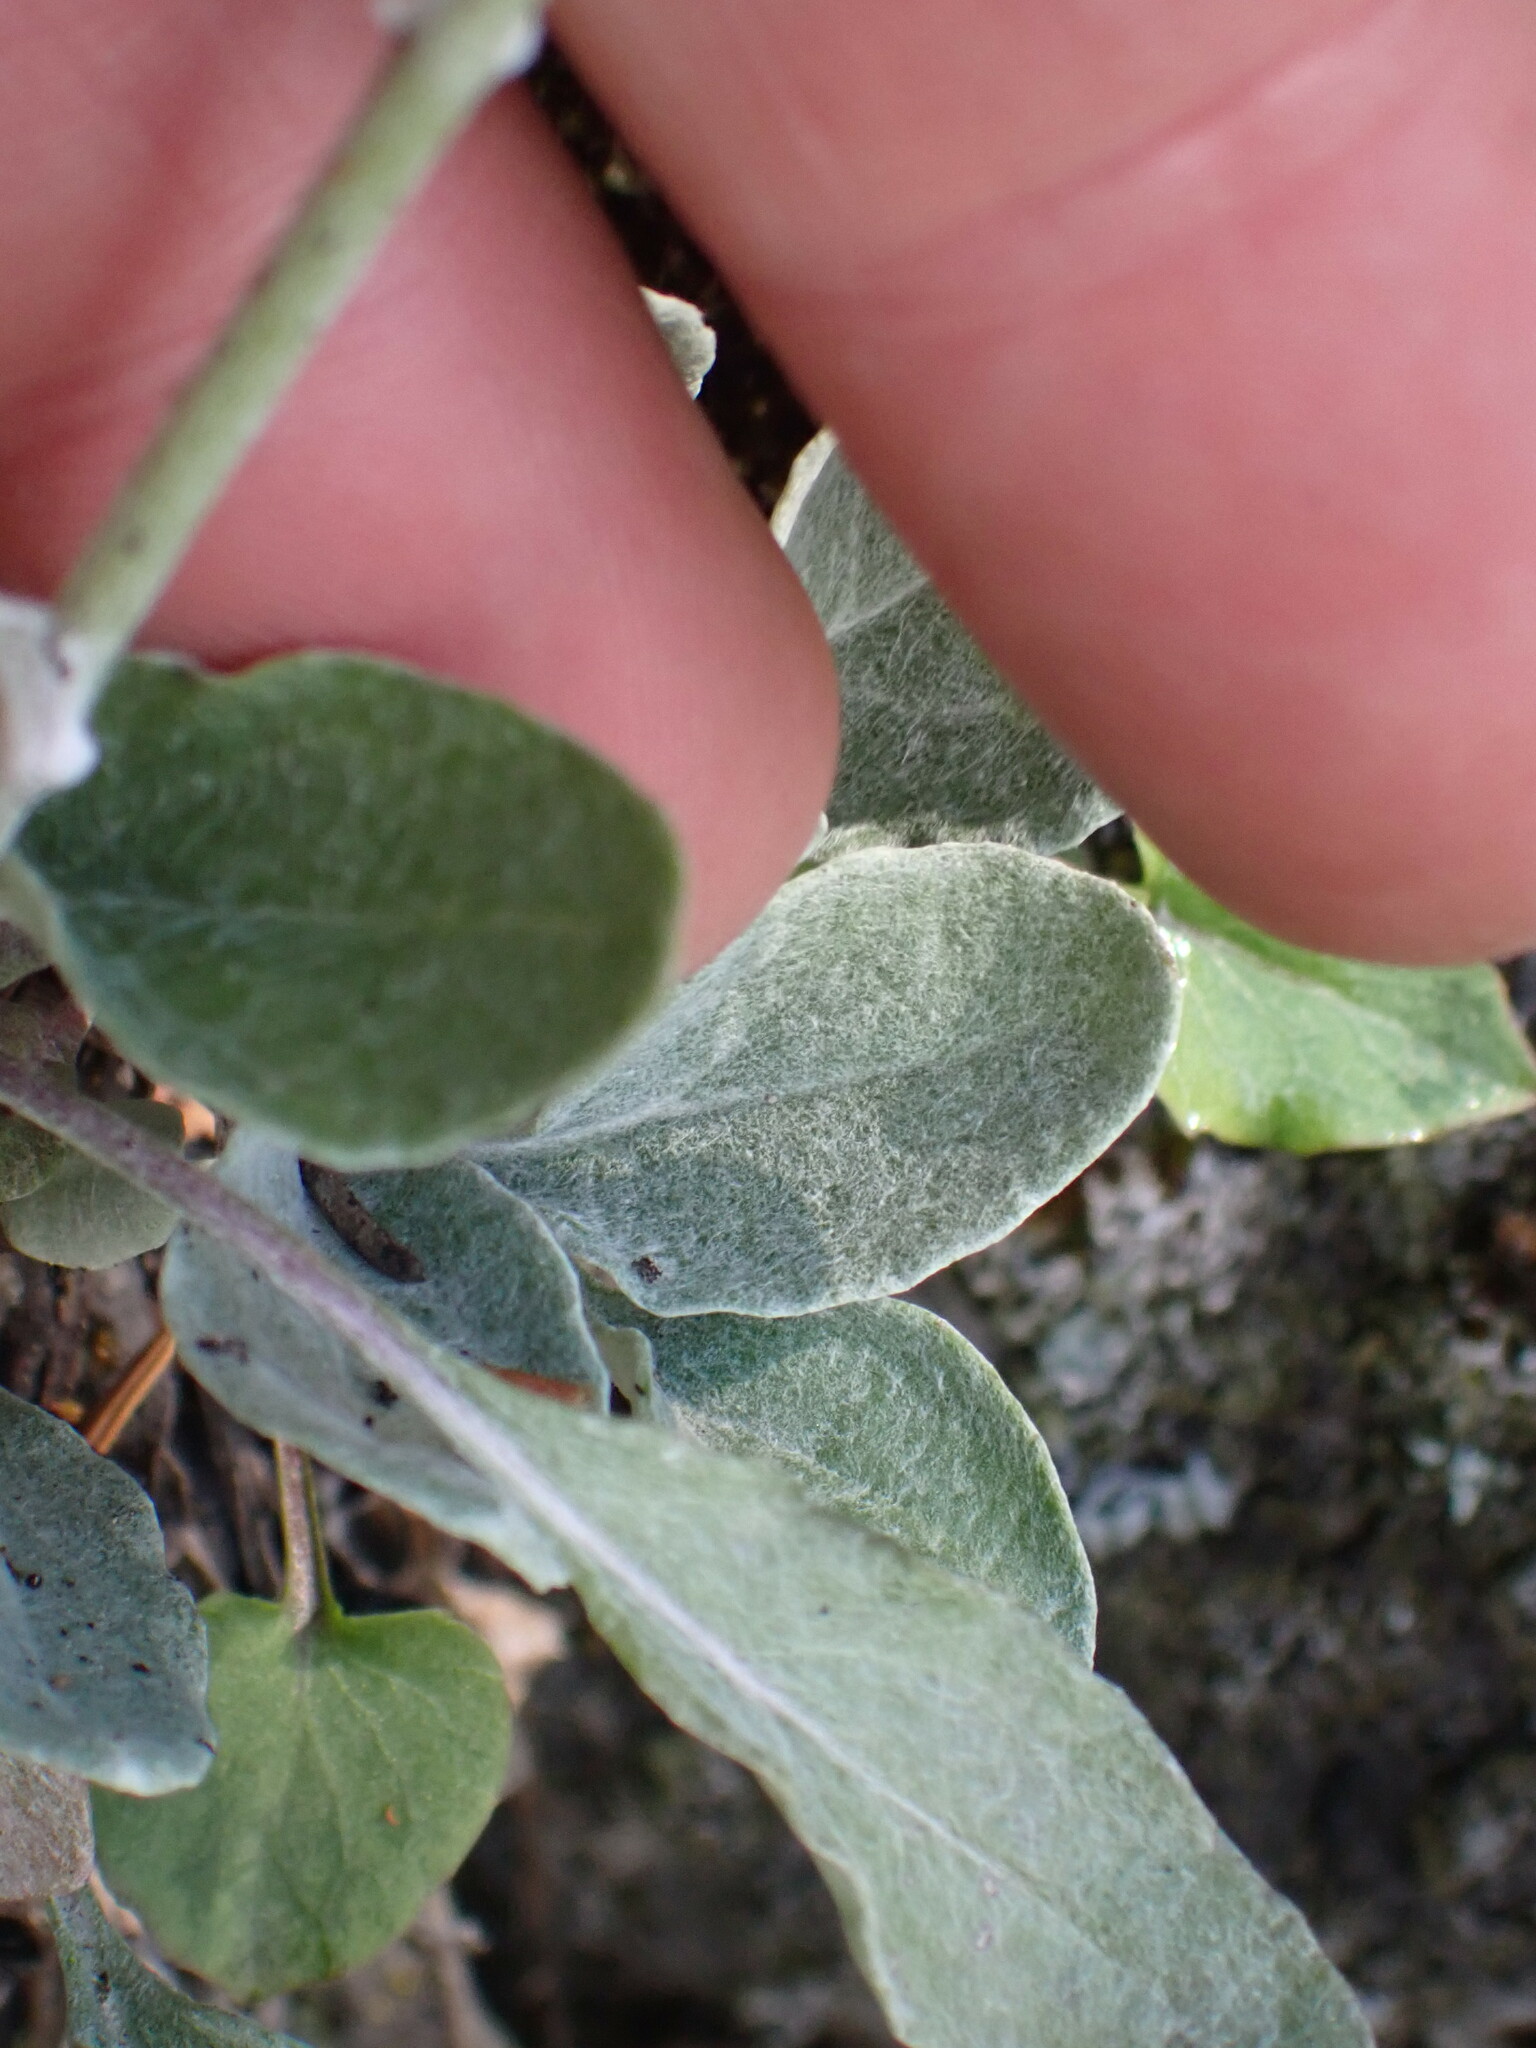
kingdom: Plantae
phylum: Tracheophyta
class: Magnoliopsida
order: Asterales
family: Asteraceae
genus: Packera
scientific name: Packera cana
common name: Woolly groundsel
